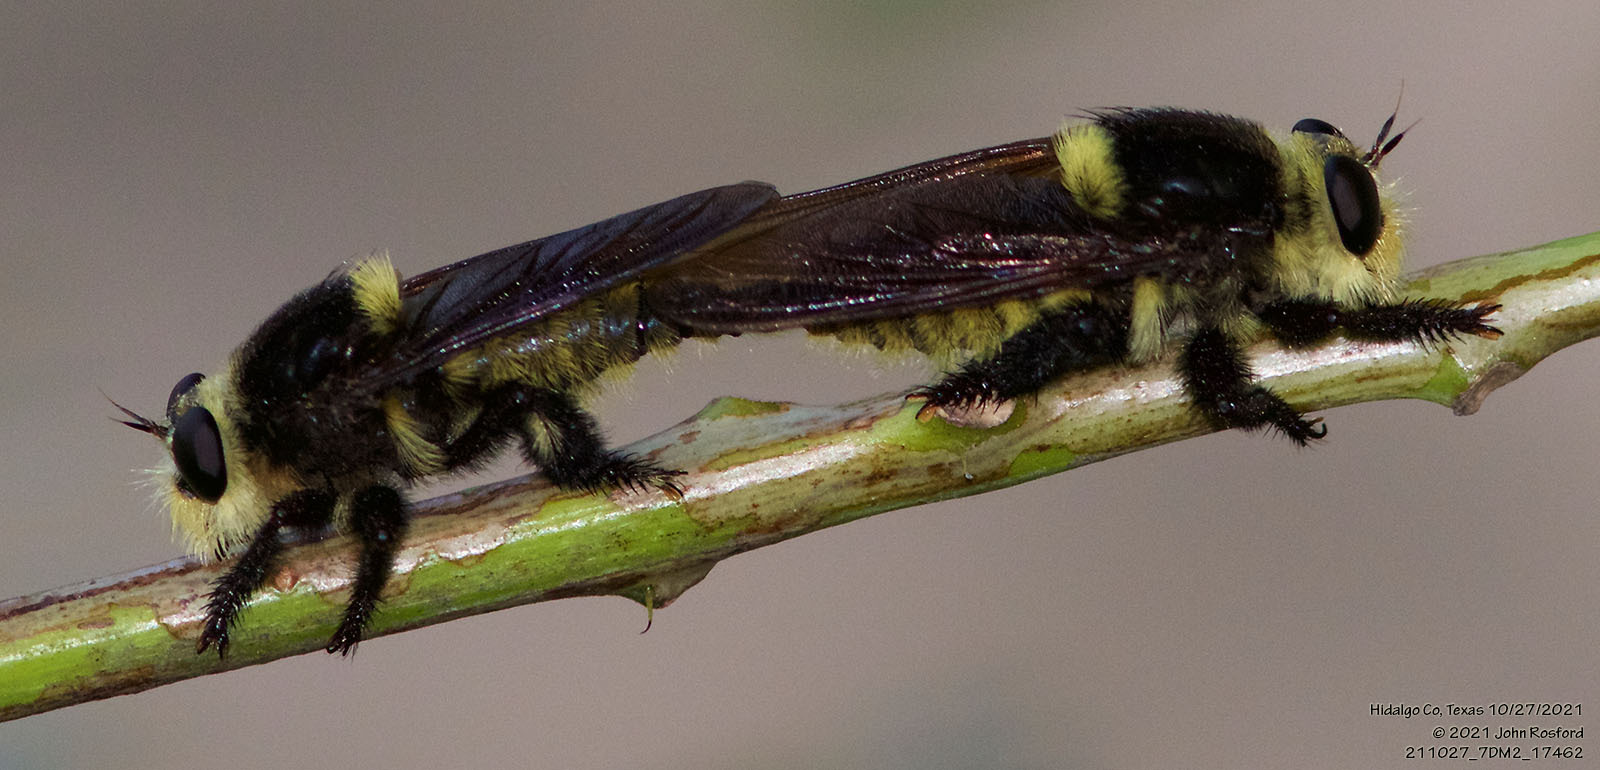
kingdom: Animalia
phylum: Arthropoda
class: Insecta
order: Diptera
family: Asilidae
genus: Mallophora
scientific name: Mallophora fautrix
